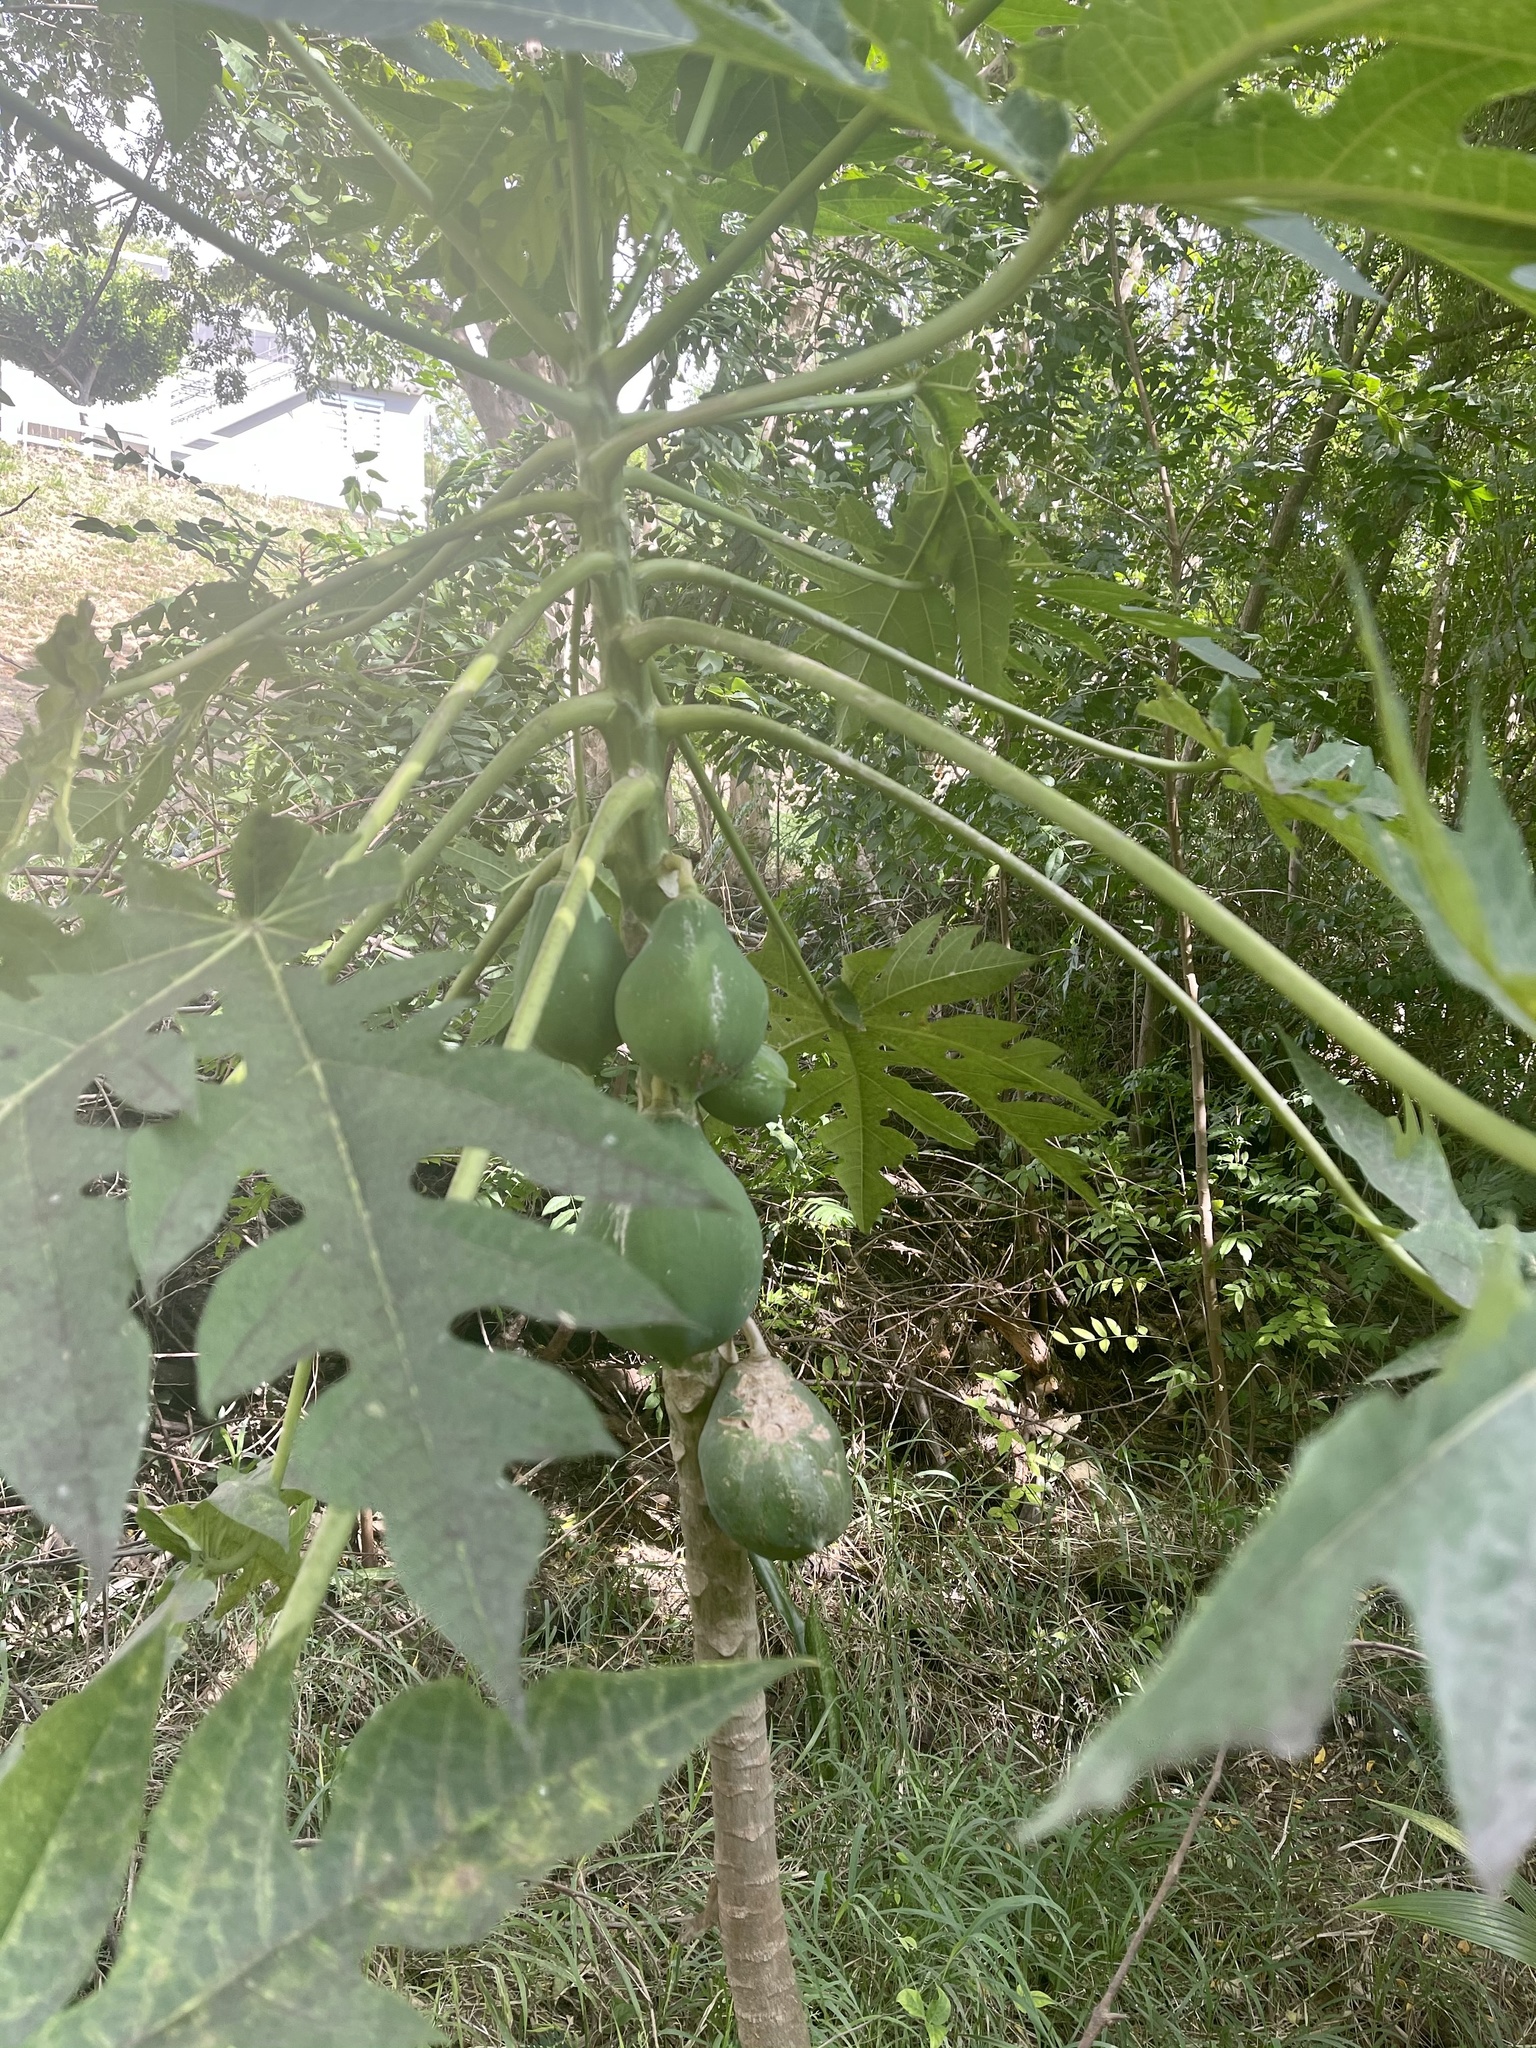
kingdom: Plantae
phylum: Tracheophyta
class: Magnoliopsida
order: Brassicales
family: Caricaceae
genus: Carica
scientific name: Carica papaya
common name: Papaya
